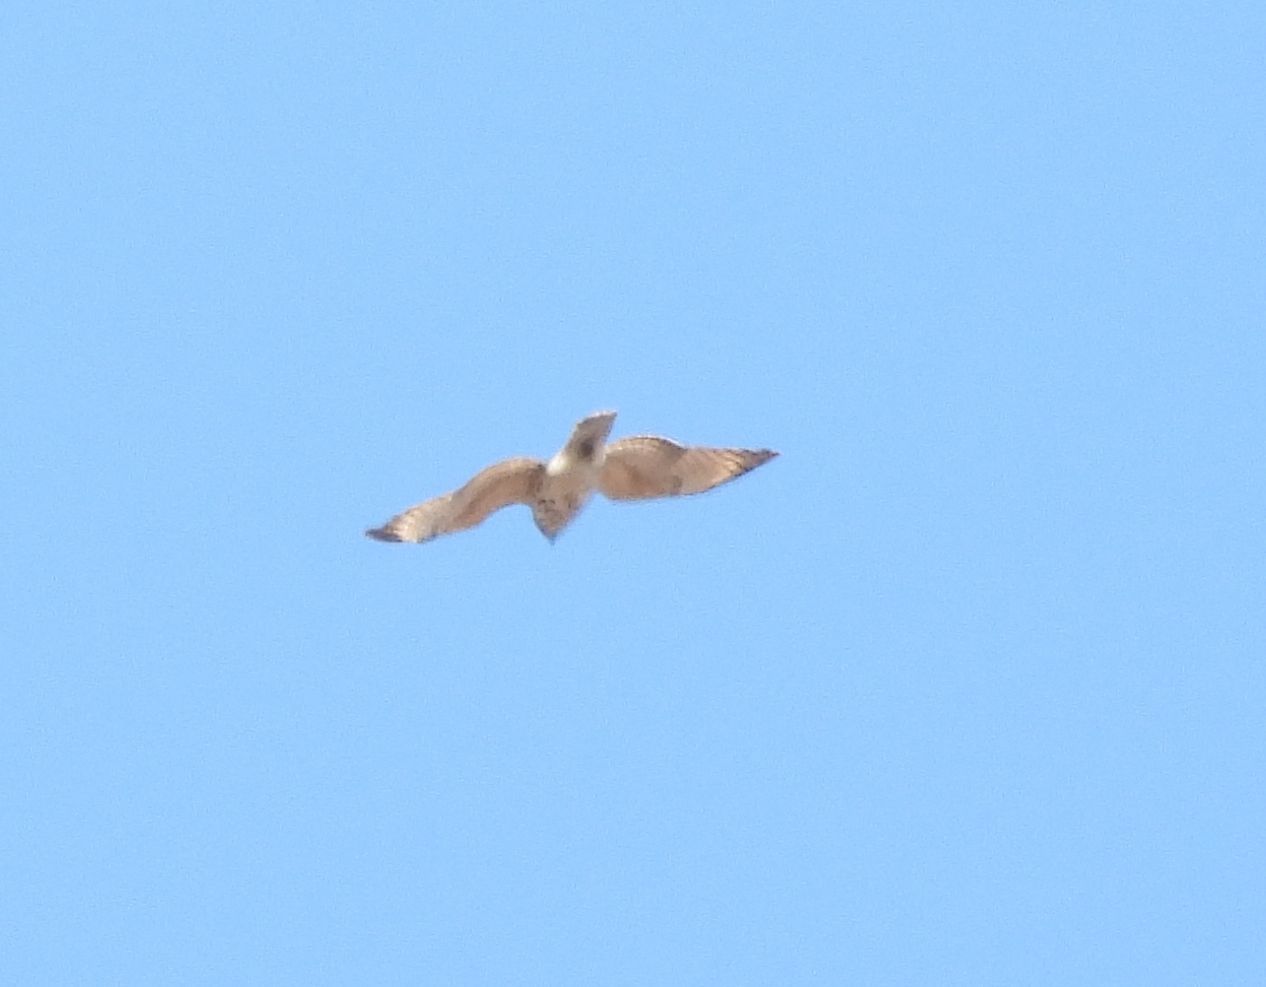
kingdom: Animalia
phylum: Chordata
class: Aves
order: Accipitriformes
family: Accipitridae
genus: Buteo
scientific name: Buteo lineatus
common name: Red-shouldered hawk
